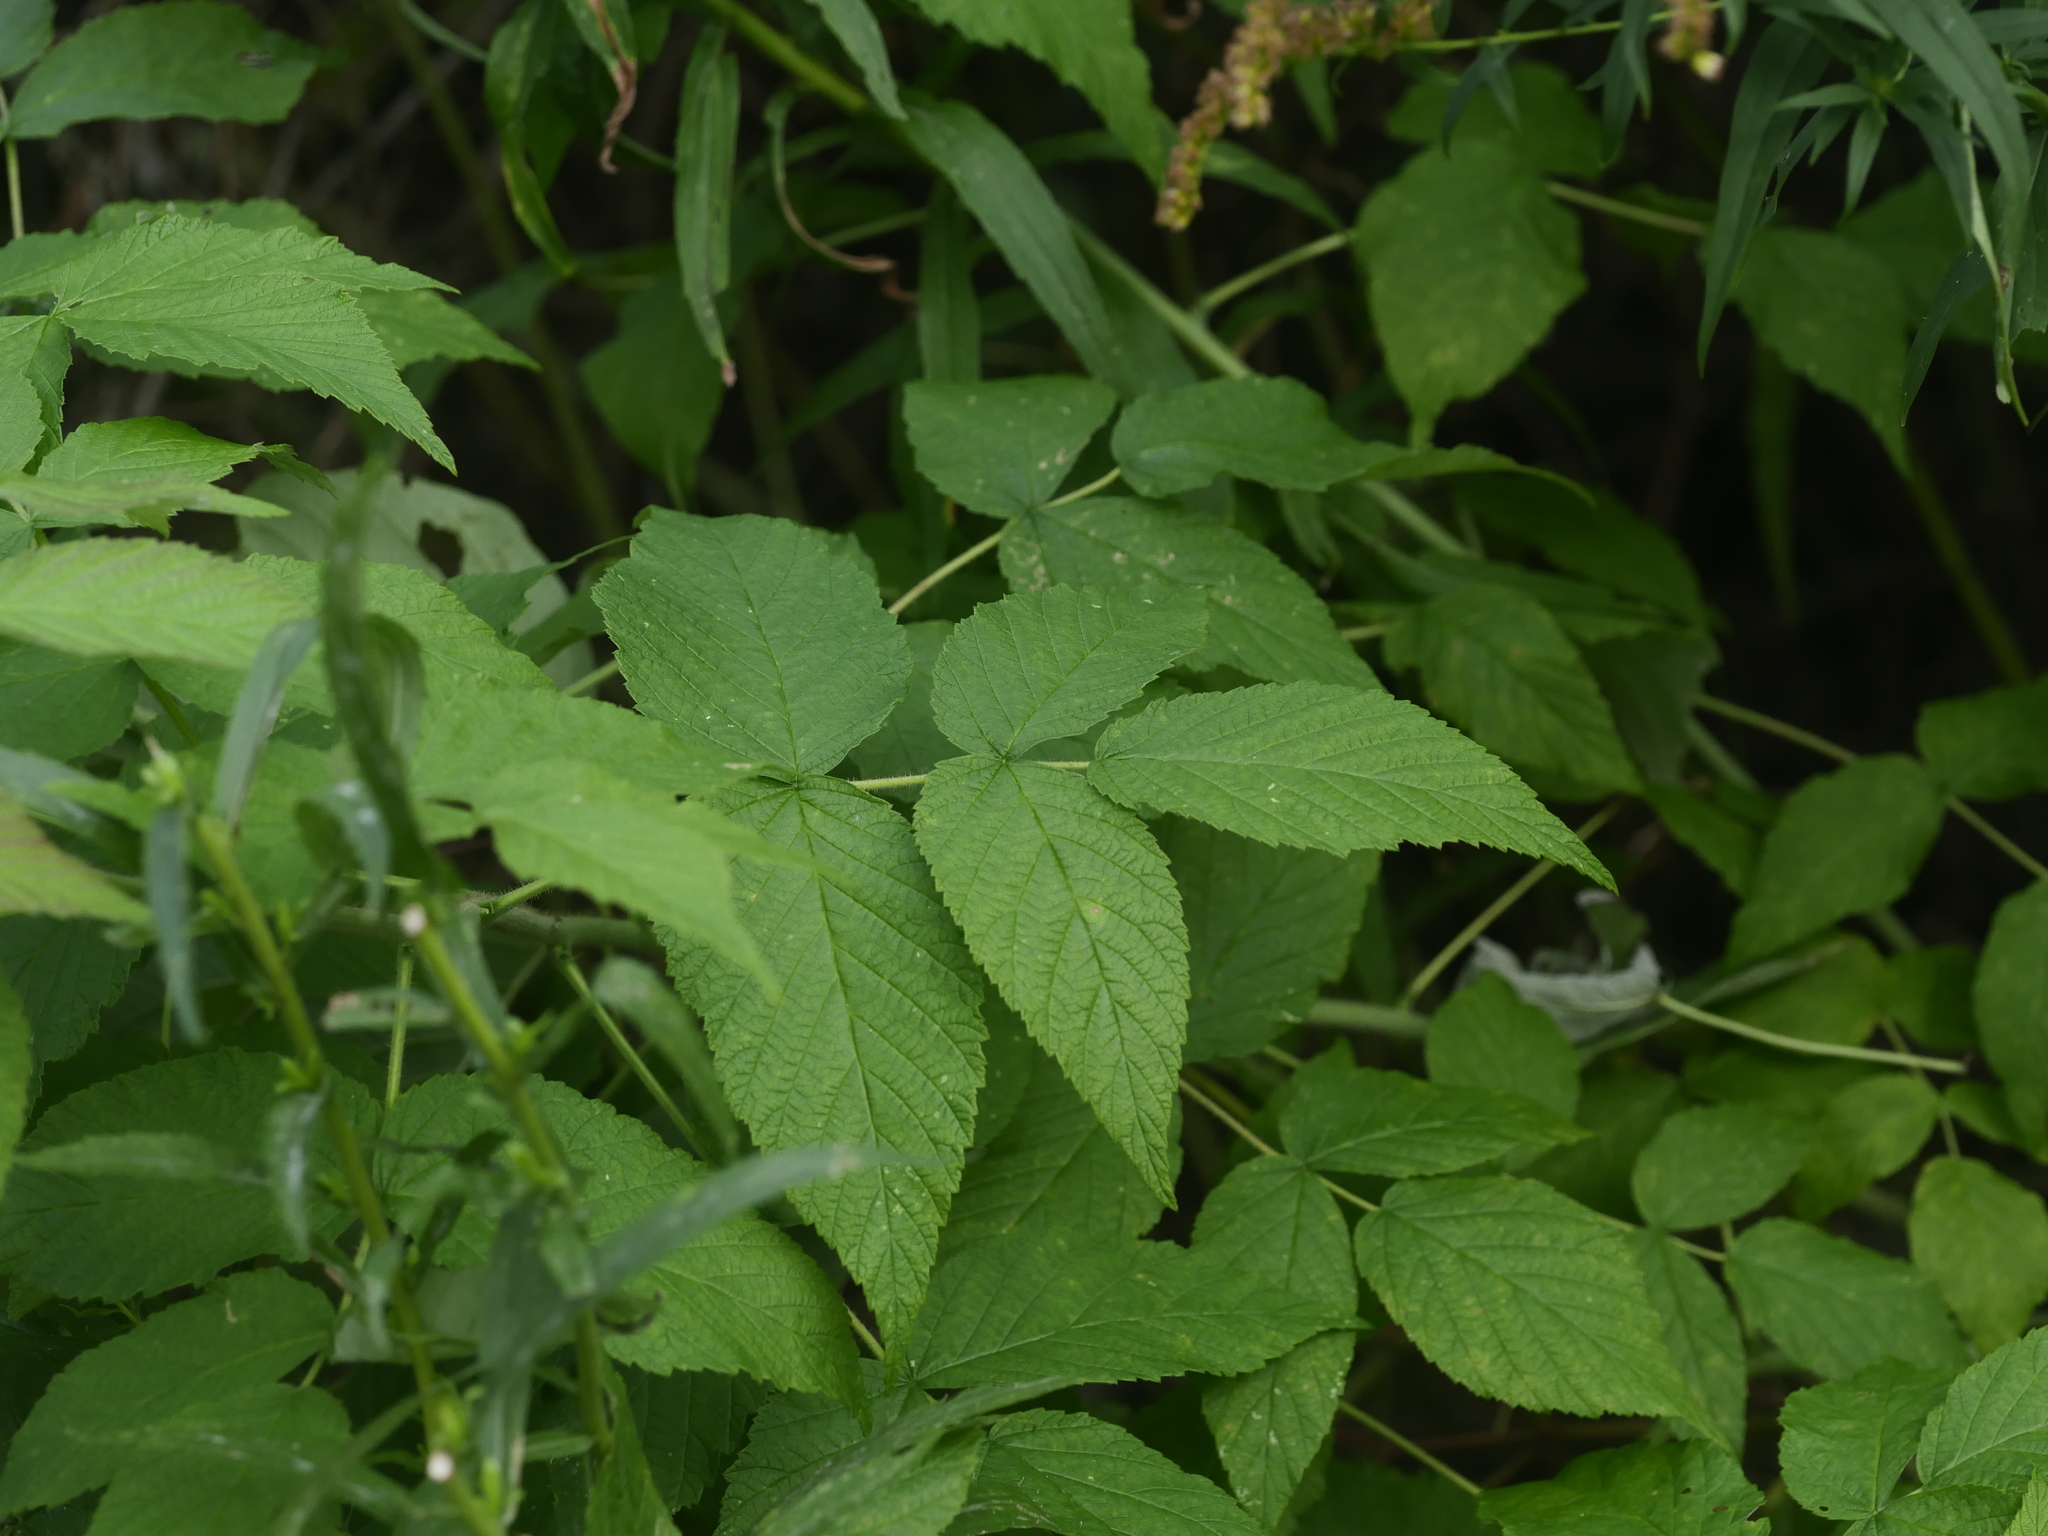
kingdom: Plantae
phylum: Tracheophyta
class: Magnoliopsida
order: Rosales
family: Rosaceae
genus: Rubus
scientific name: Rubus idaeus
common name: Raspberry
